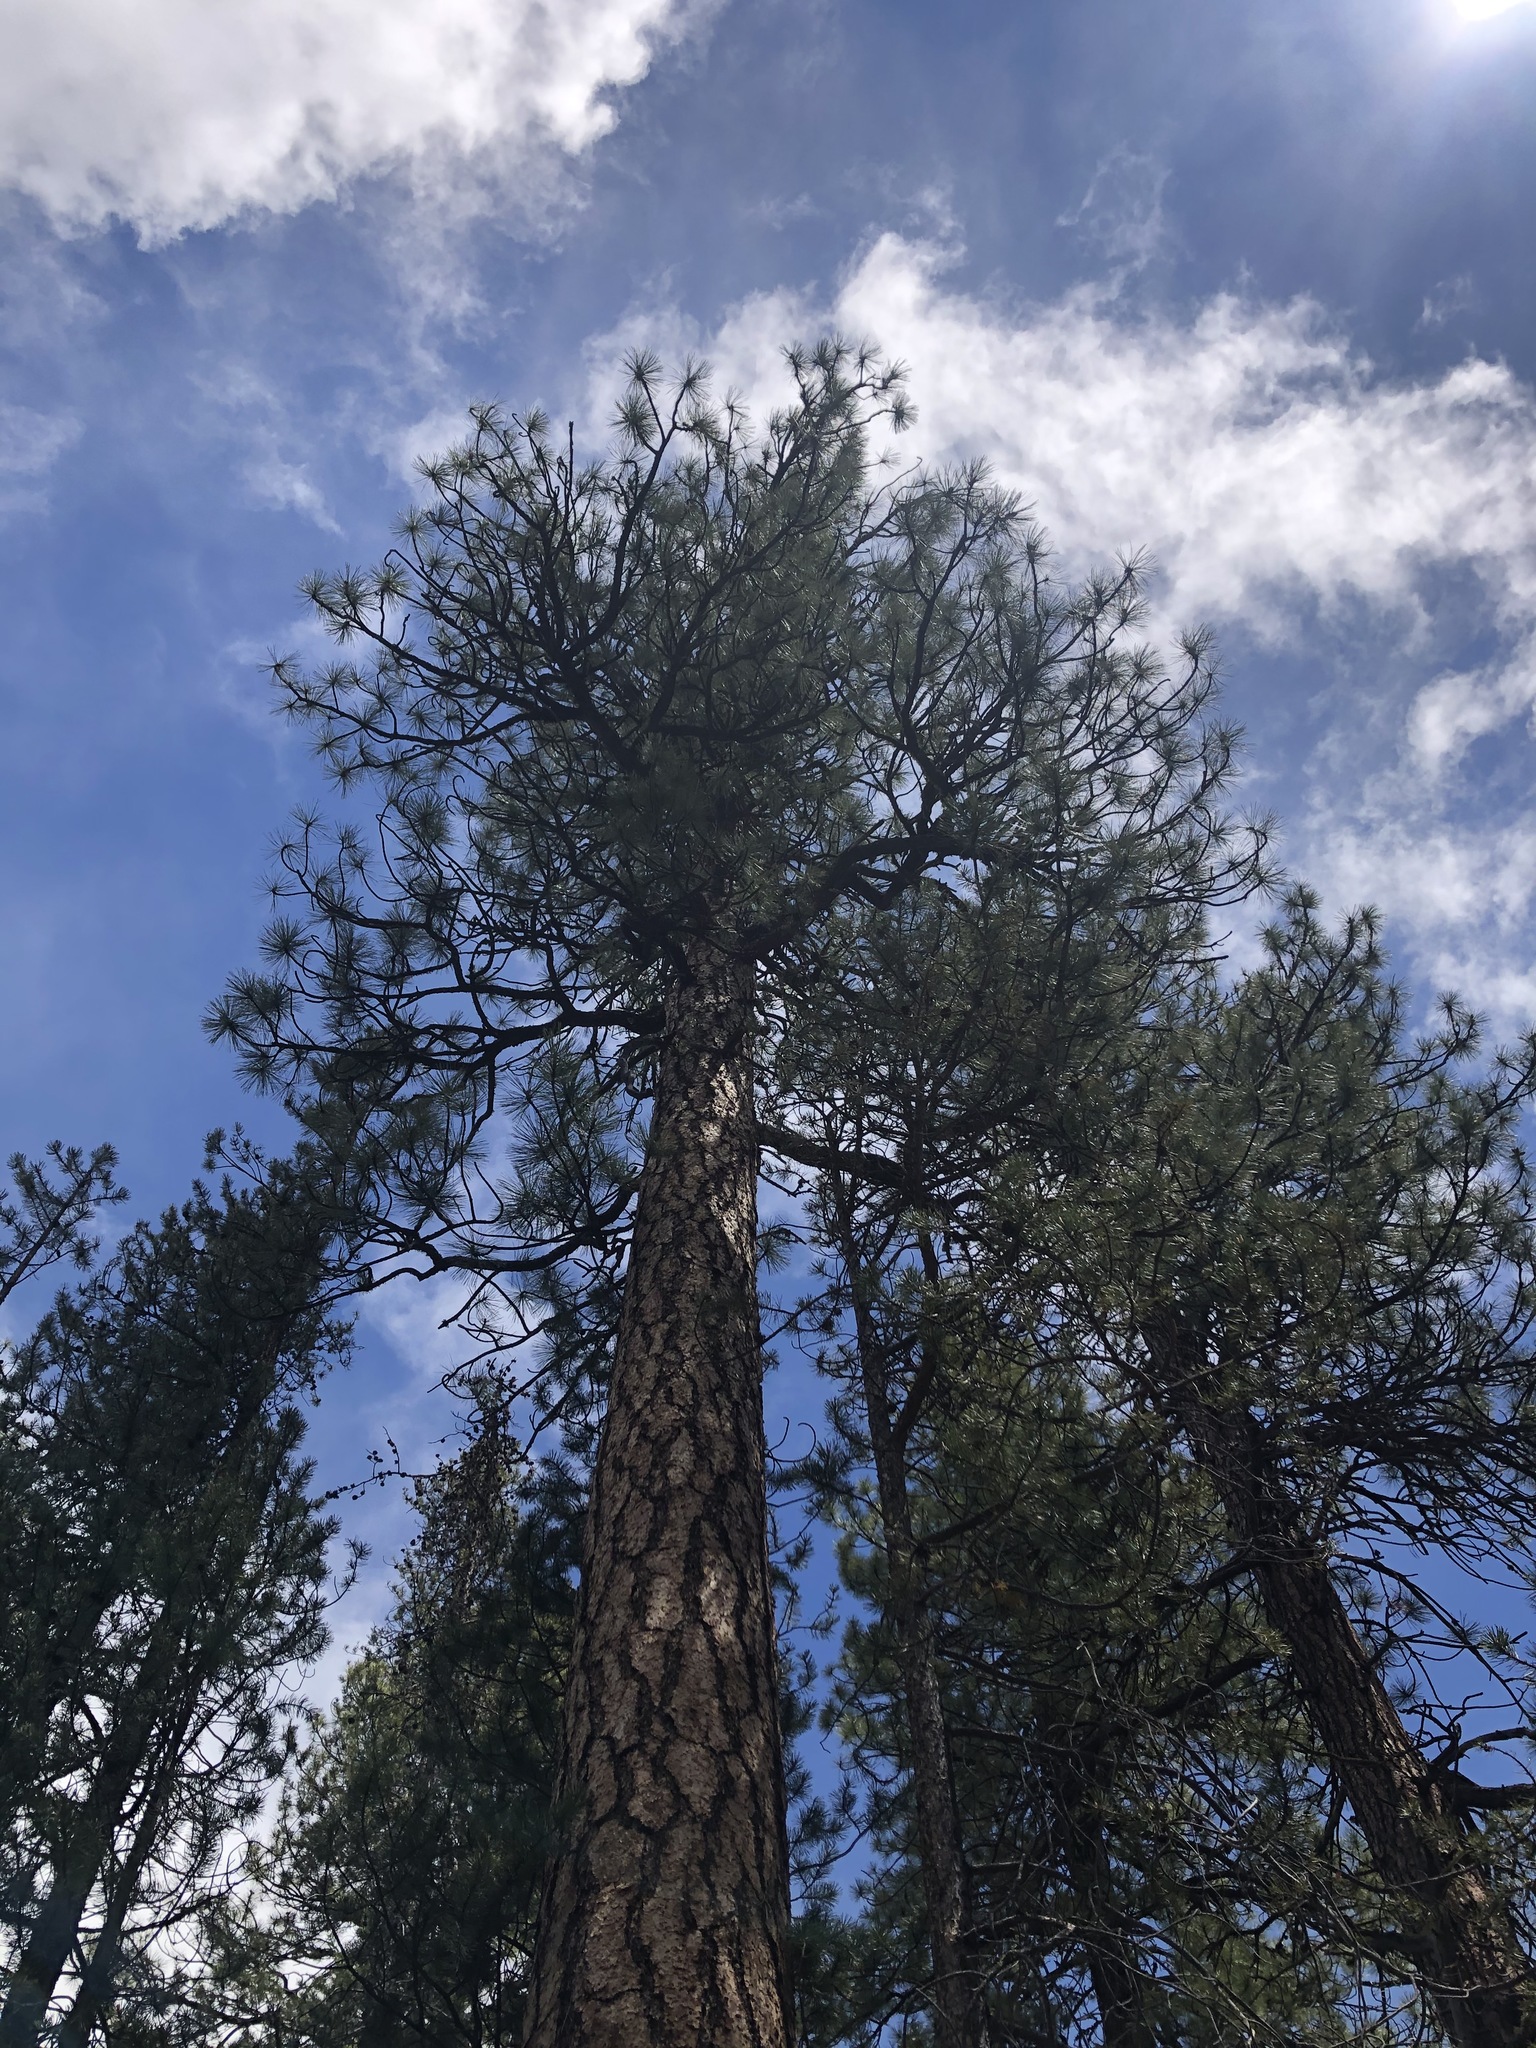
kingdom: Plantae
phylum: Tracheophyta
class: Pinopsida
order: Pinales
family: Pinaceae
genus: Pinus
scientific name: Pinus ponderosa
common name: Western yellow-pine
